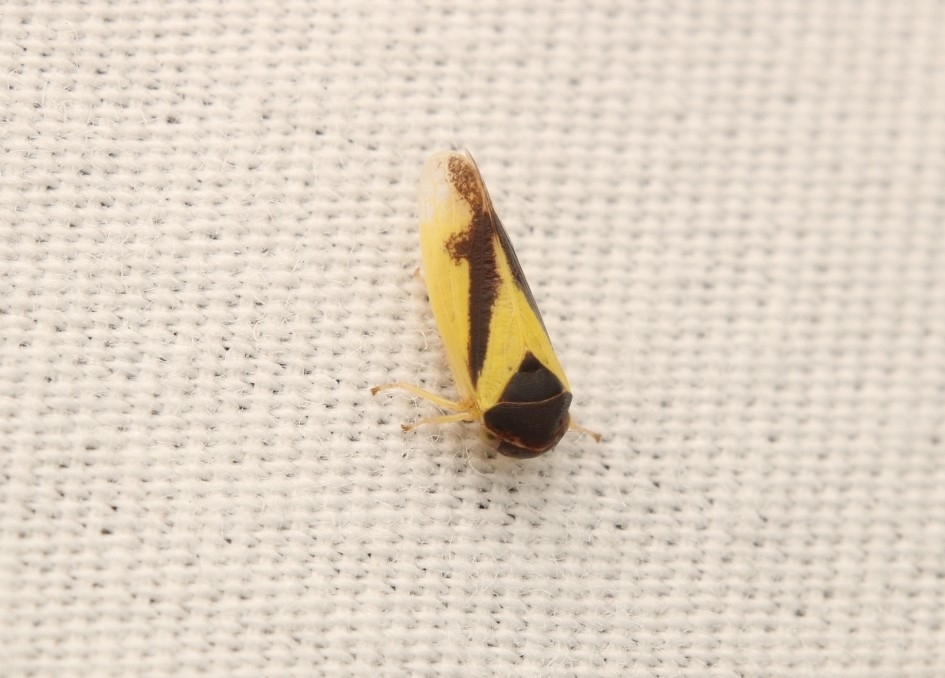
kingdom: Animalia
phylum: Arthropoda
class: Insecta
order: Hemiptera
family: Cicadellidae
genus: Oncopsis
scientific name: Oncopsis variabilis
